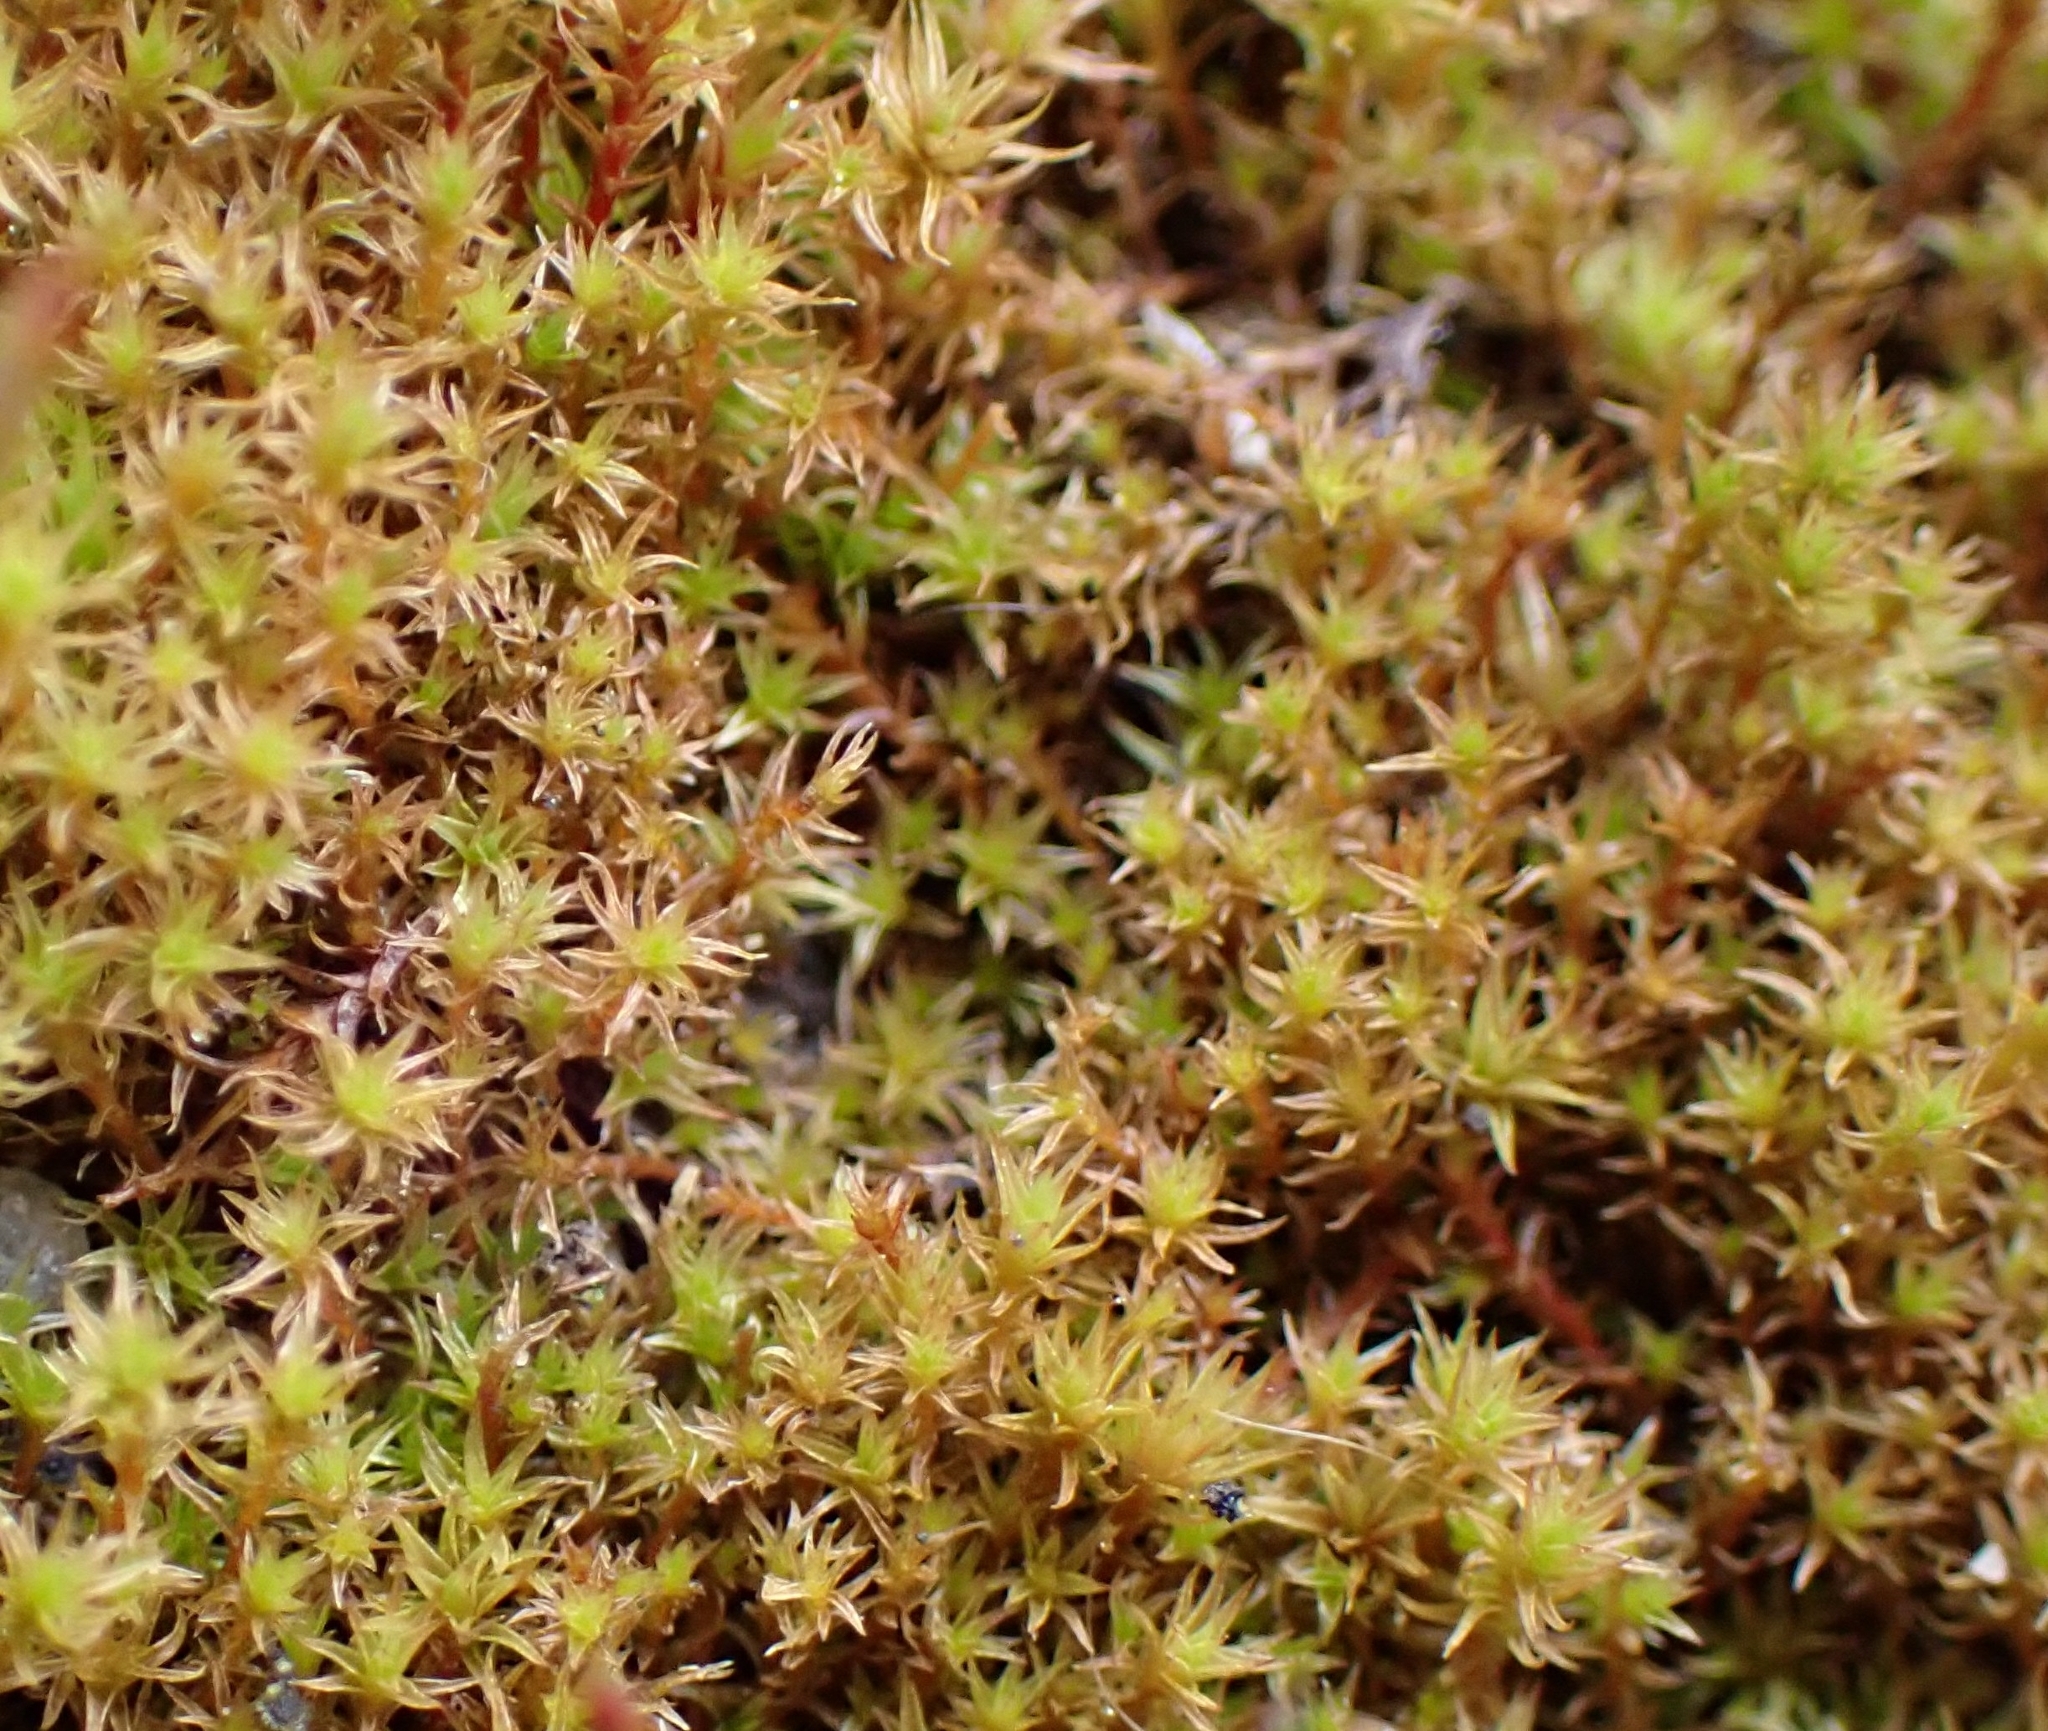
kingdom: Plantae
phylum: Bryophyta
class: Bryopsida
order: Dicranales
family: Ditrichaceae
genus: Ceratodon
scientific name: Ceratodon purpureus
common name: Redshank
